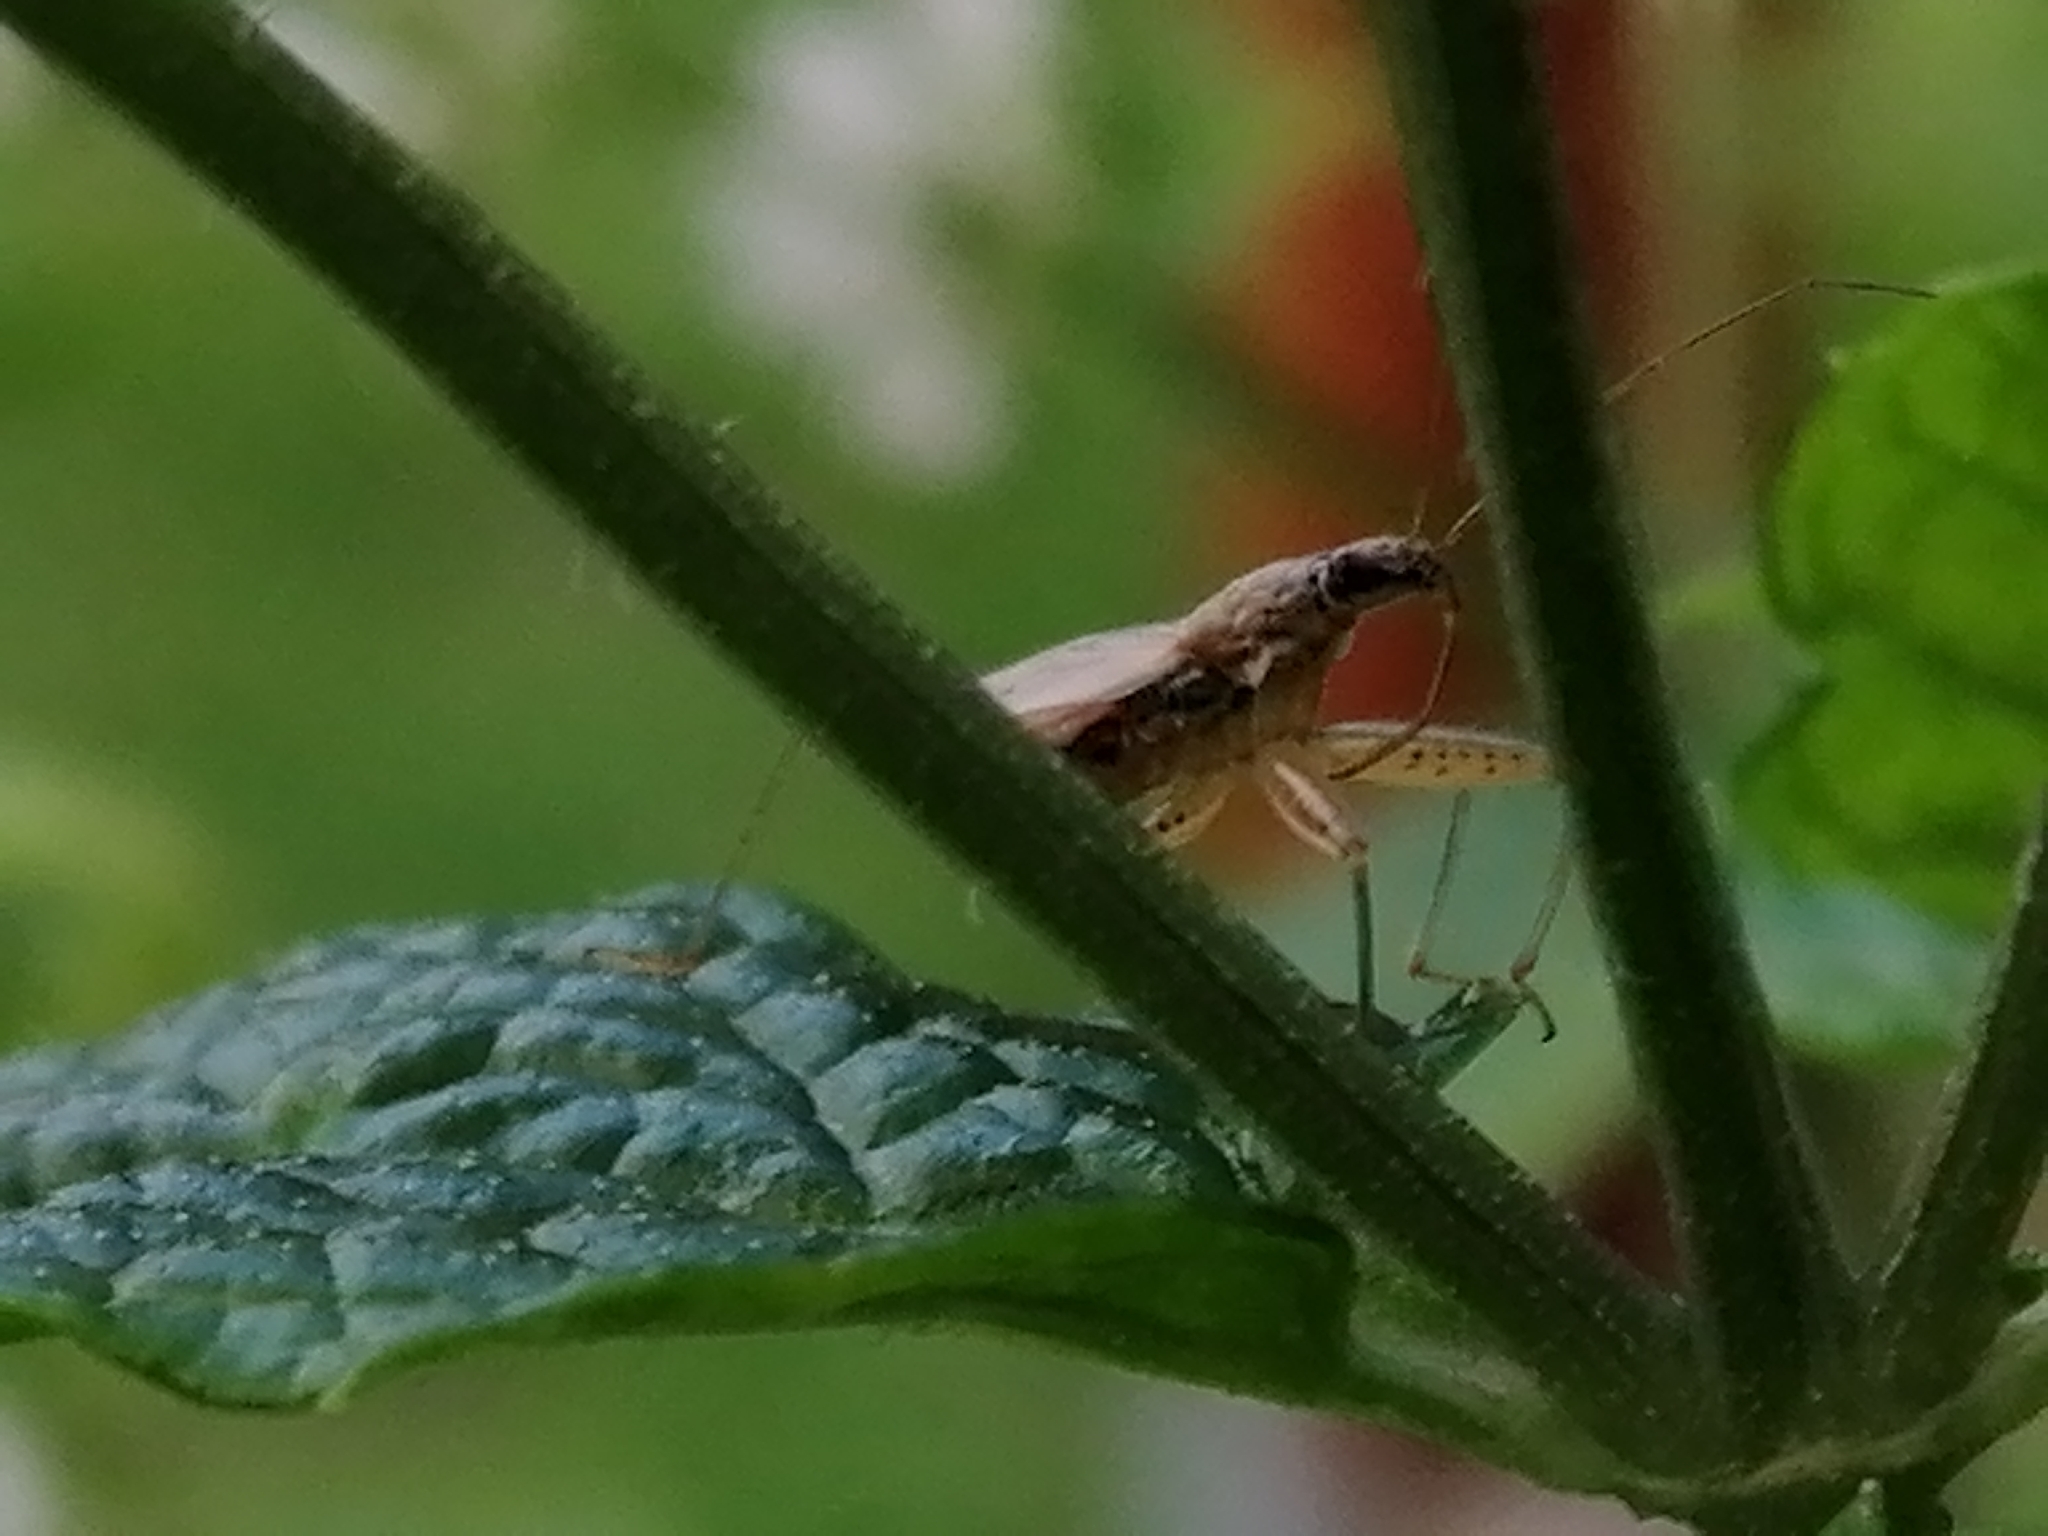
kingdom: Animalia
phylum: Arthropoda
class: Insecta
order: Hemiptera
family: Nabidae
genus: Nabis
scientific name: Nabis
